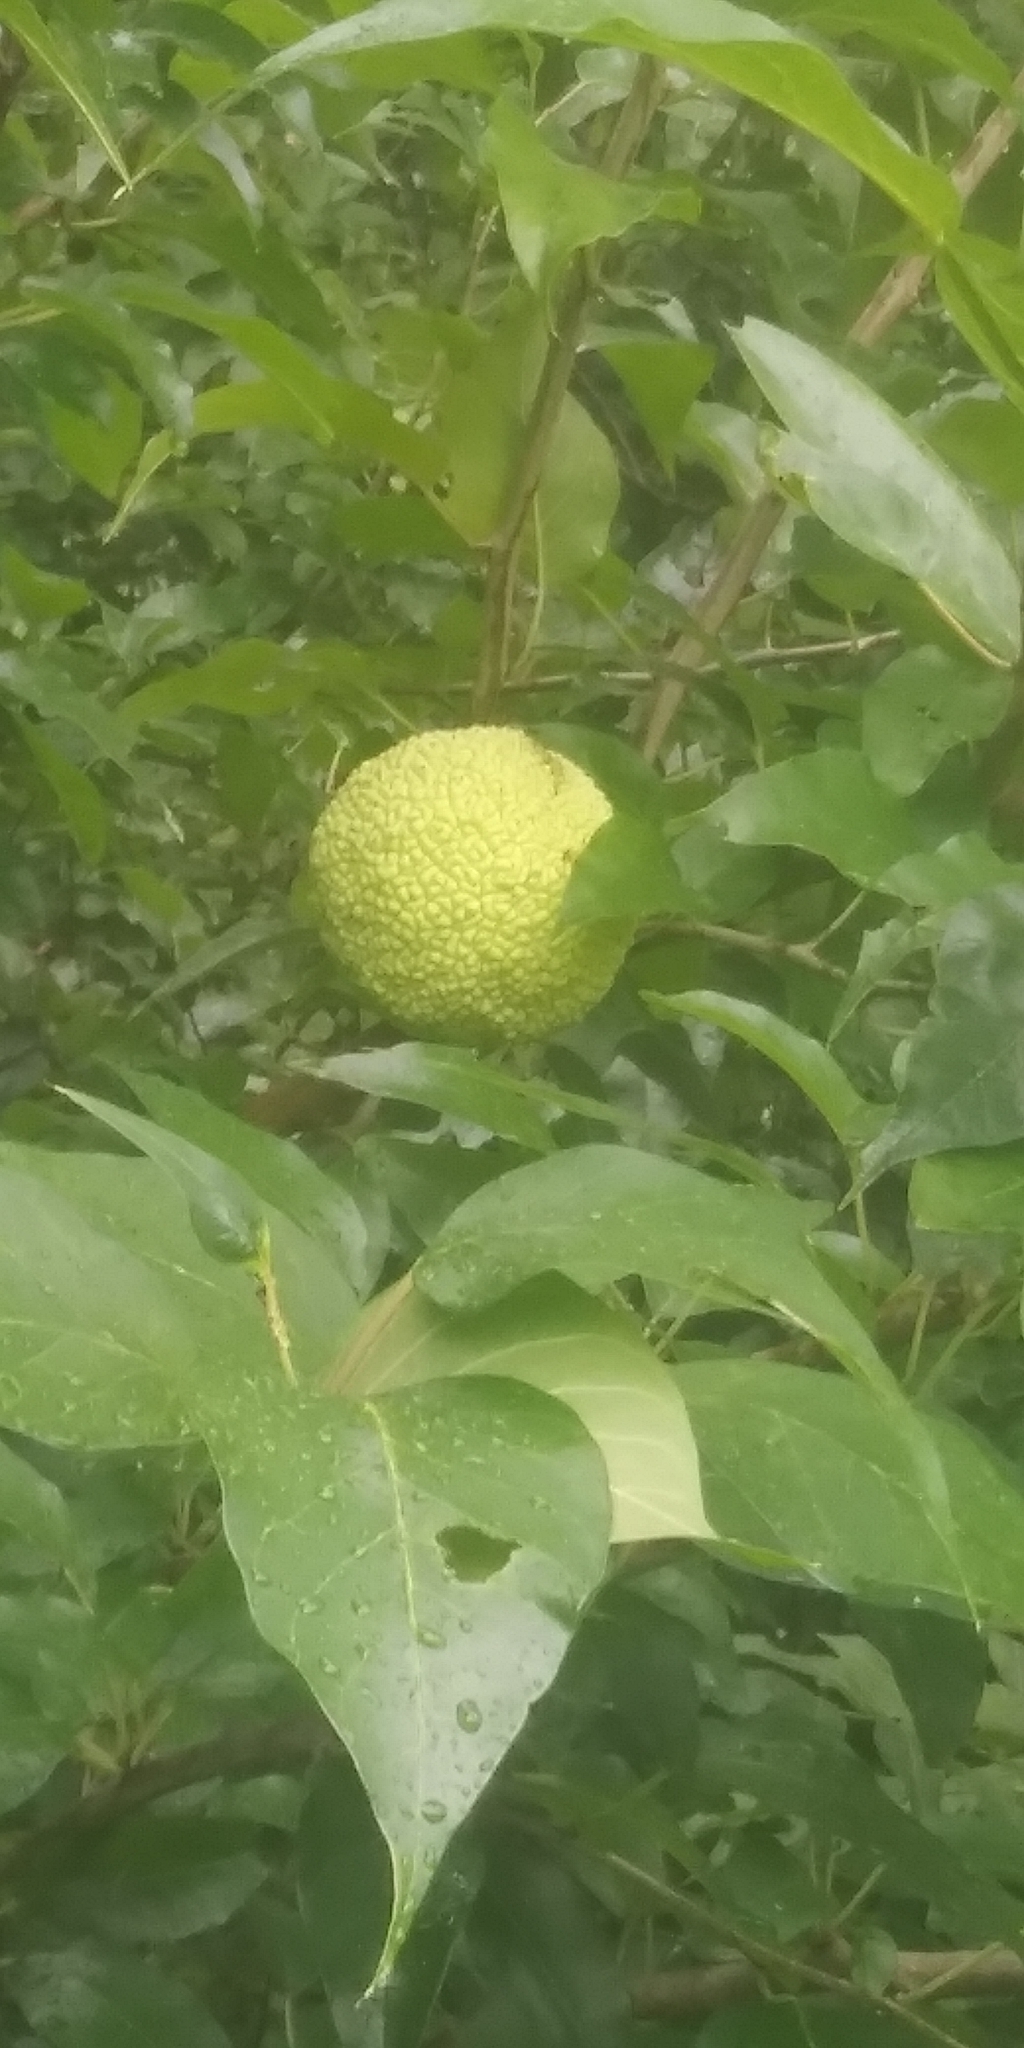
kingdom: Plantae
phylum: Tracheophyta
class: Magnoliopsida
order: Rosales
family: Moraceae
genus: Maclura
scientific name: Maclura pomifera
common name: Osage-orange
